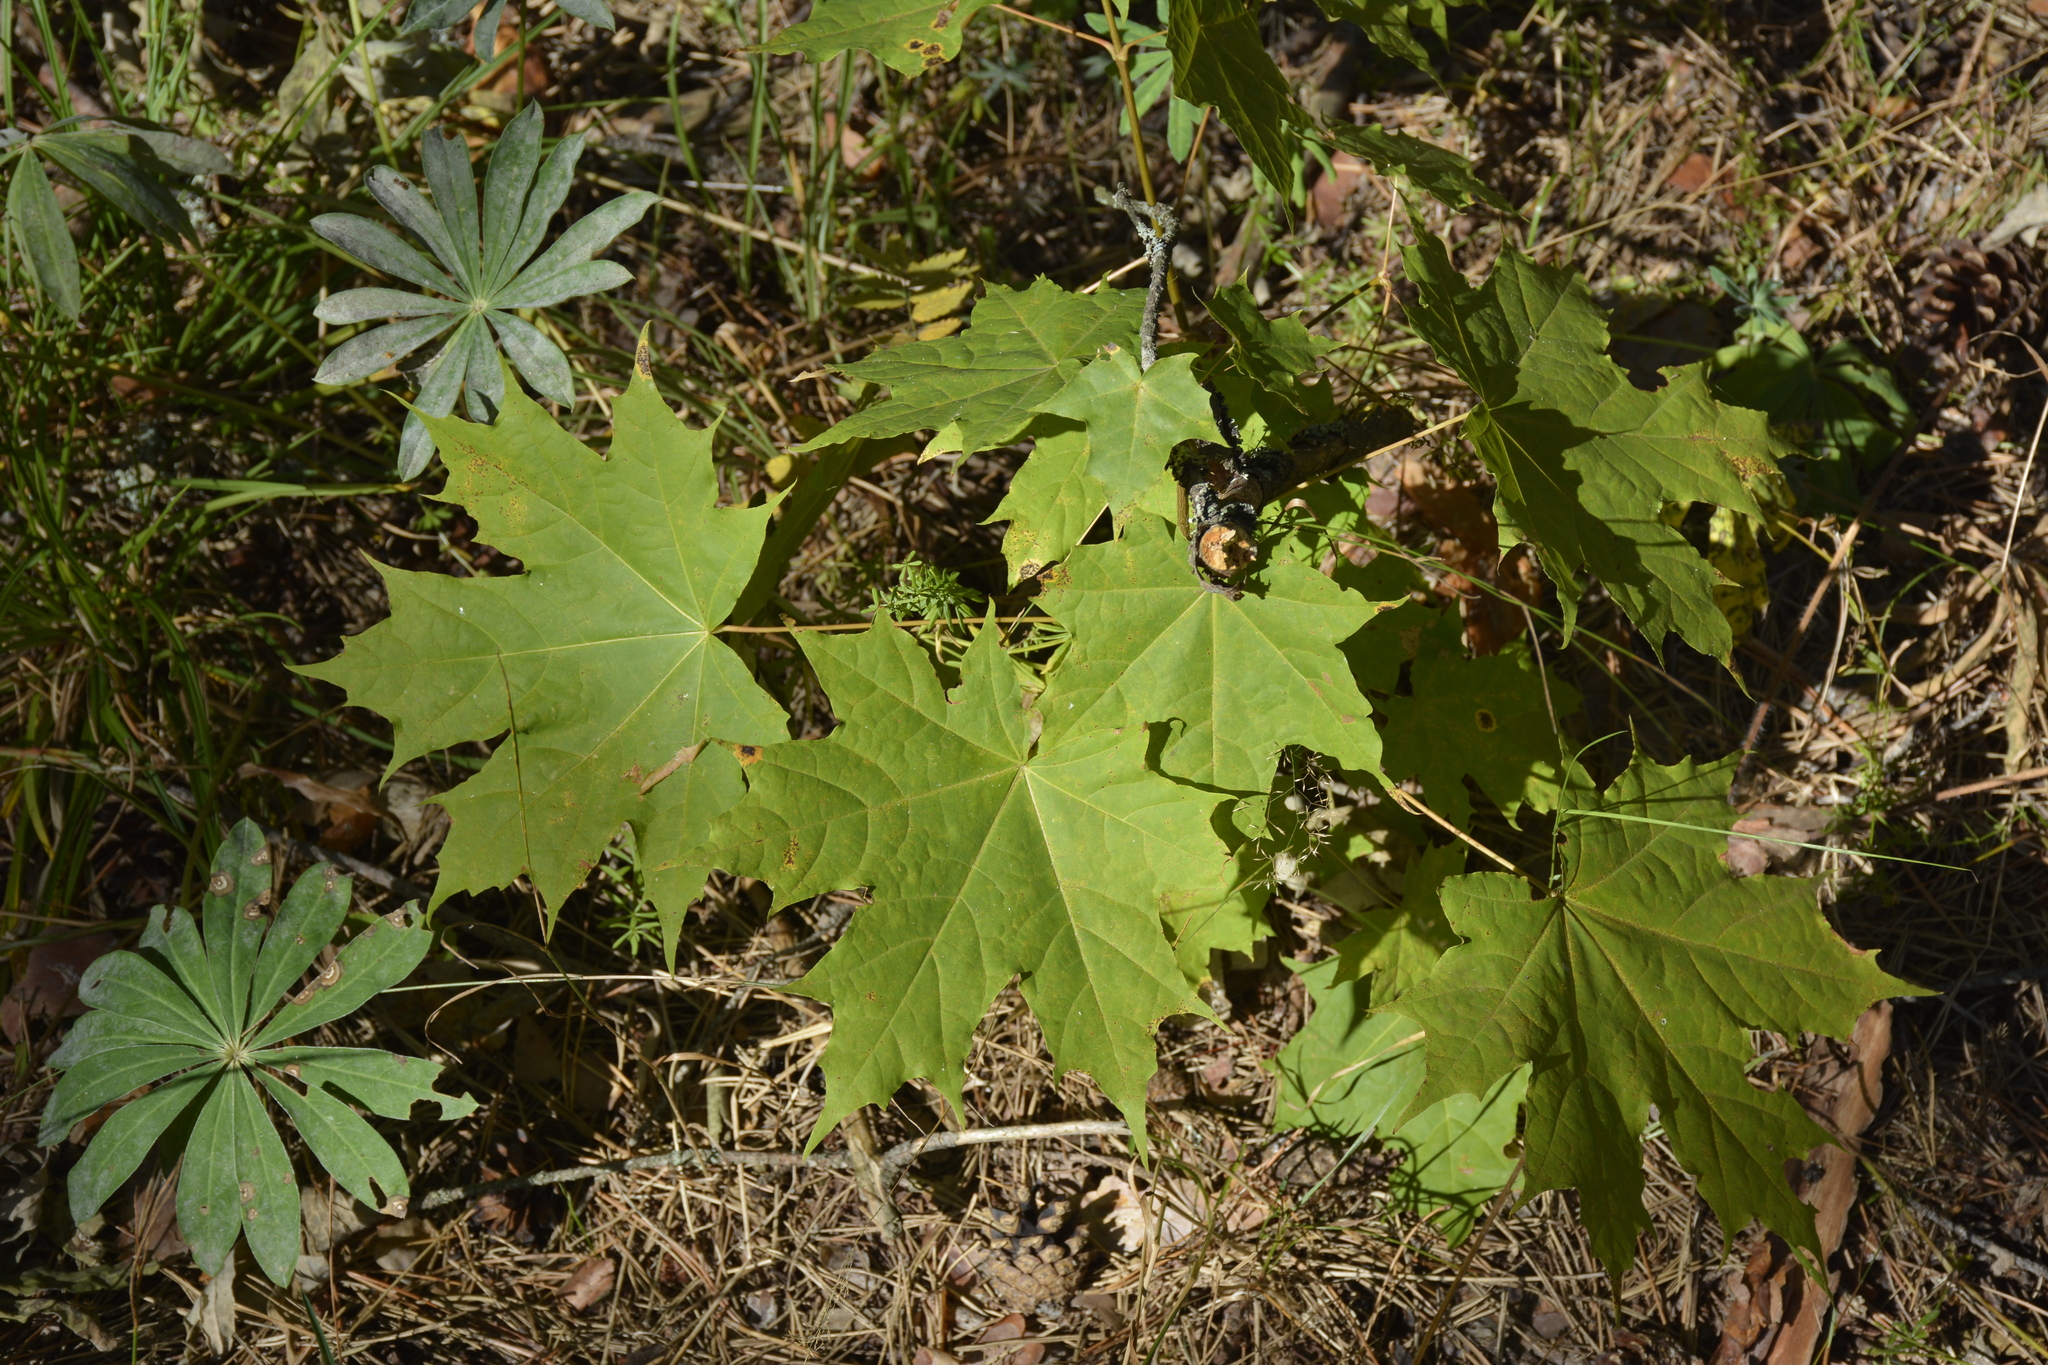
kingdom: Plantae
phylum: Tracheophyta
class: Magnoliopsida
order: Sapindales
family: Sapindaceae
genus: Acer
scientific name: Acer platanoides
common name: Norway maple
